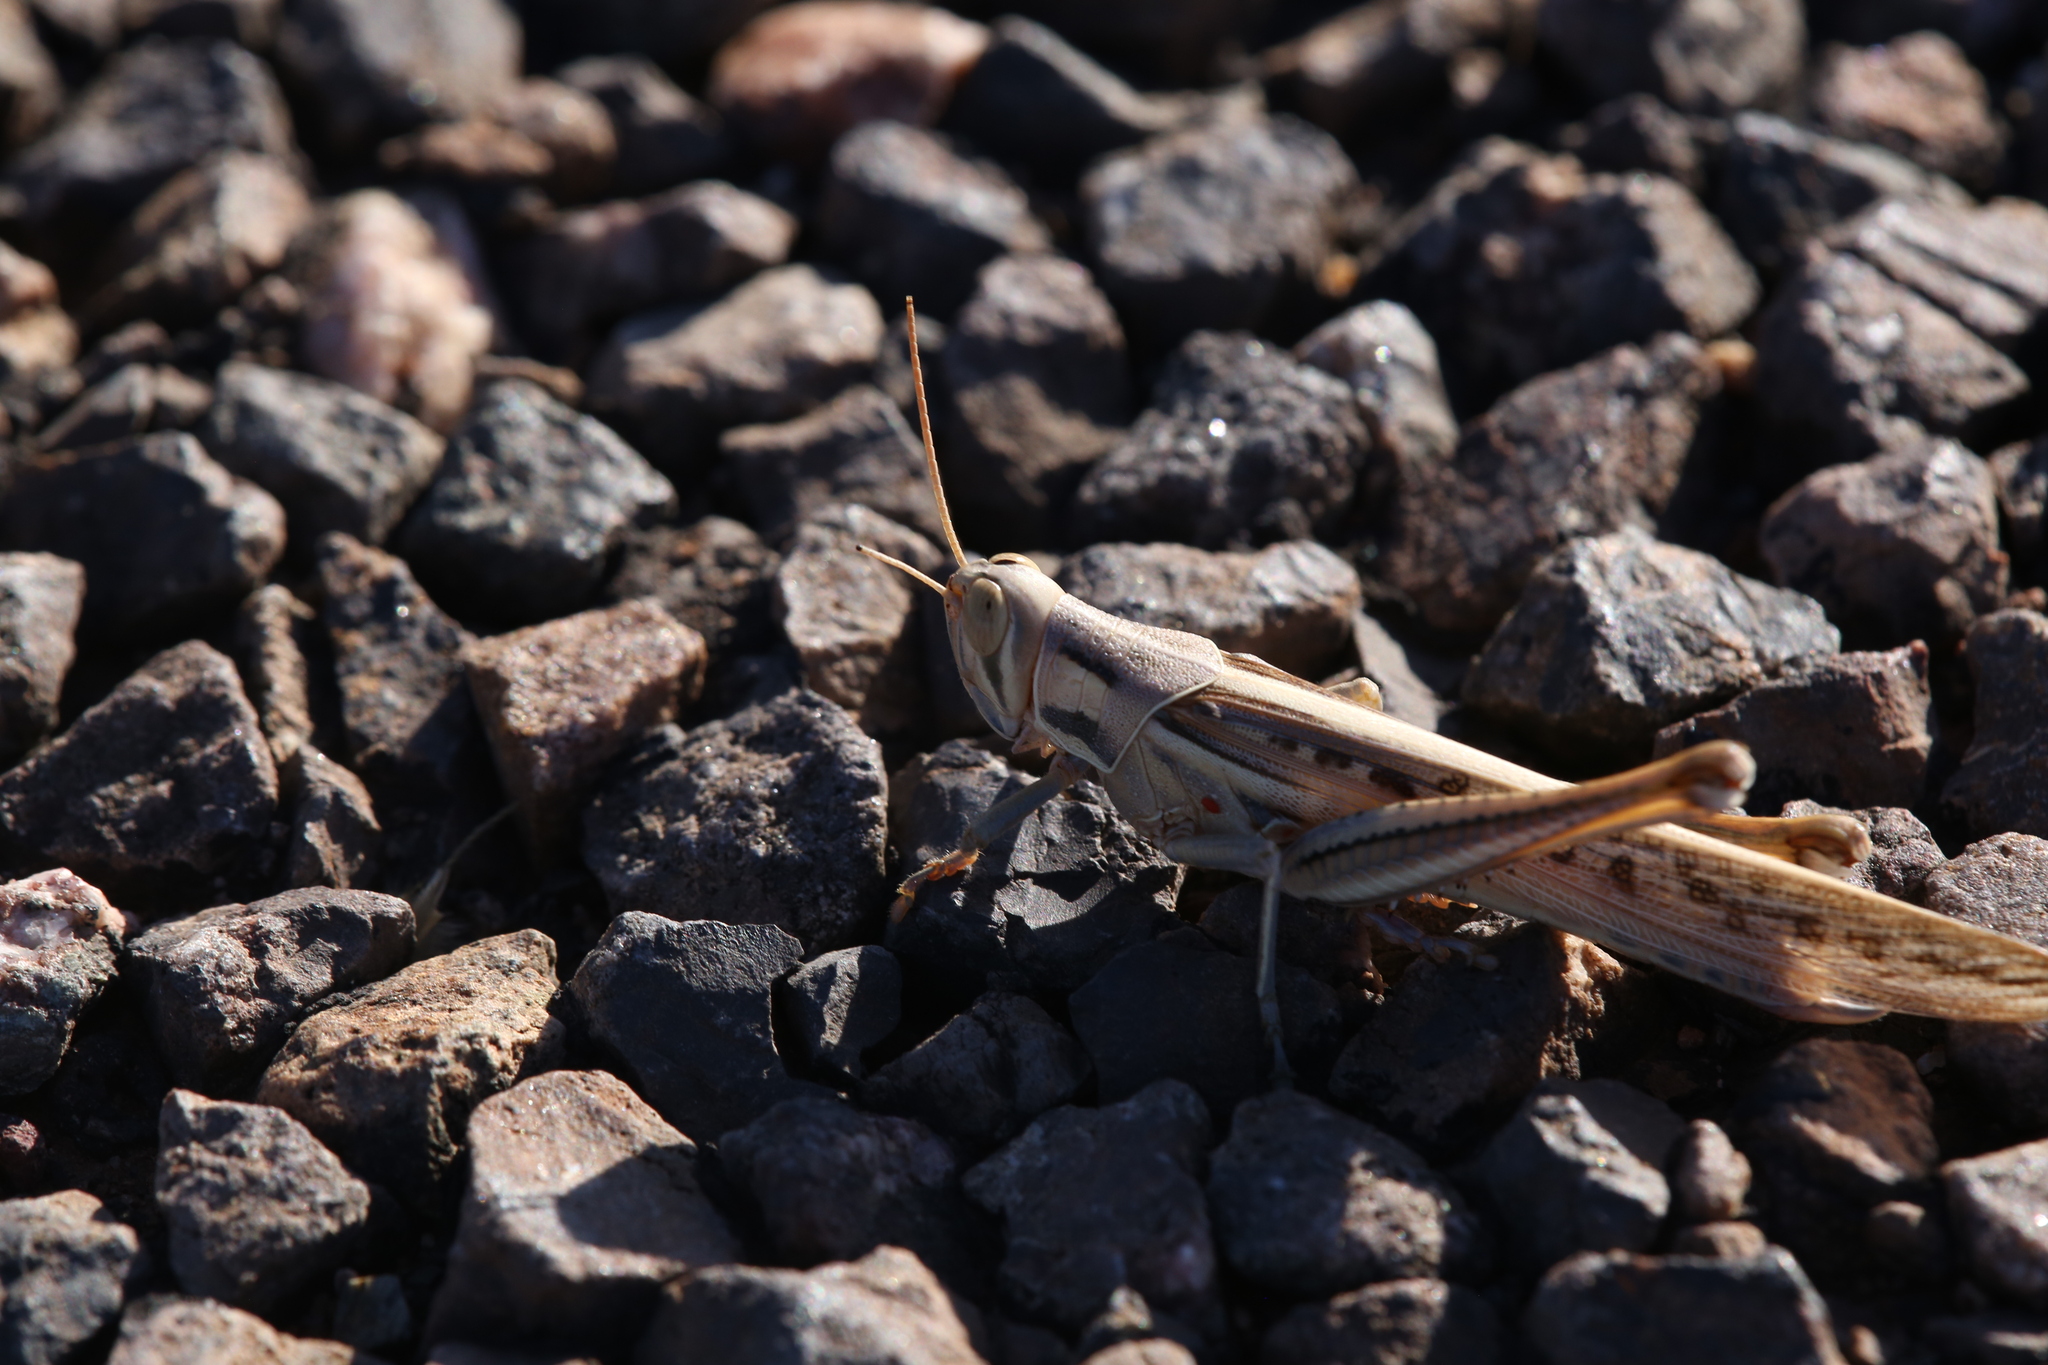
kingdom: Animalia
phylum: Arthropoda
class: Insecta
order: Orthoptera
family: Acrididae
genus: Austracris
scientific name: Austracris guttulosa
